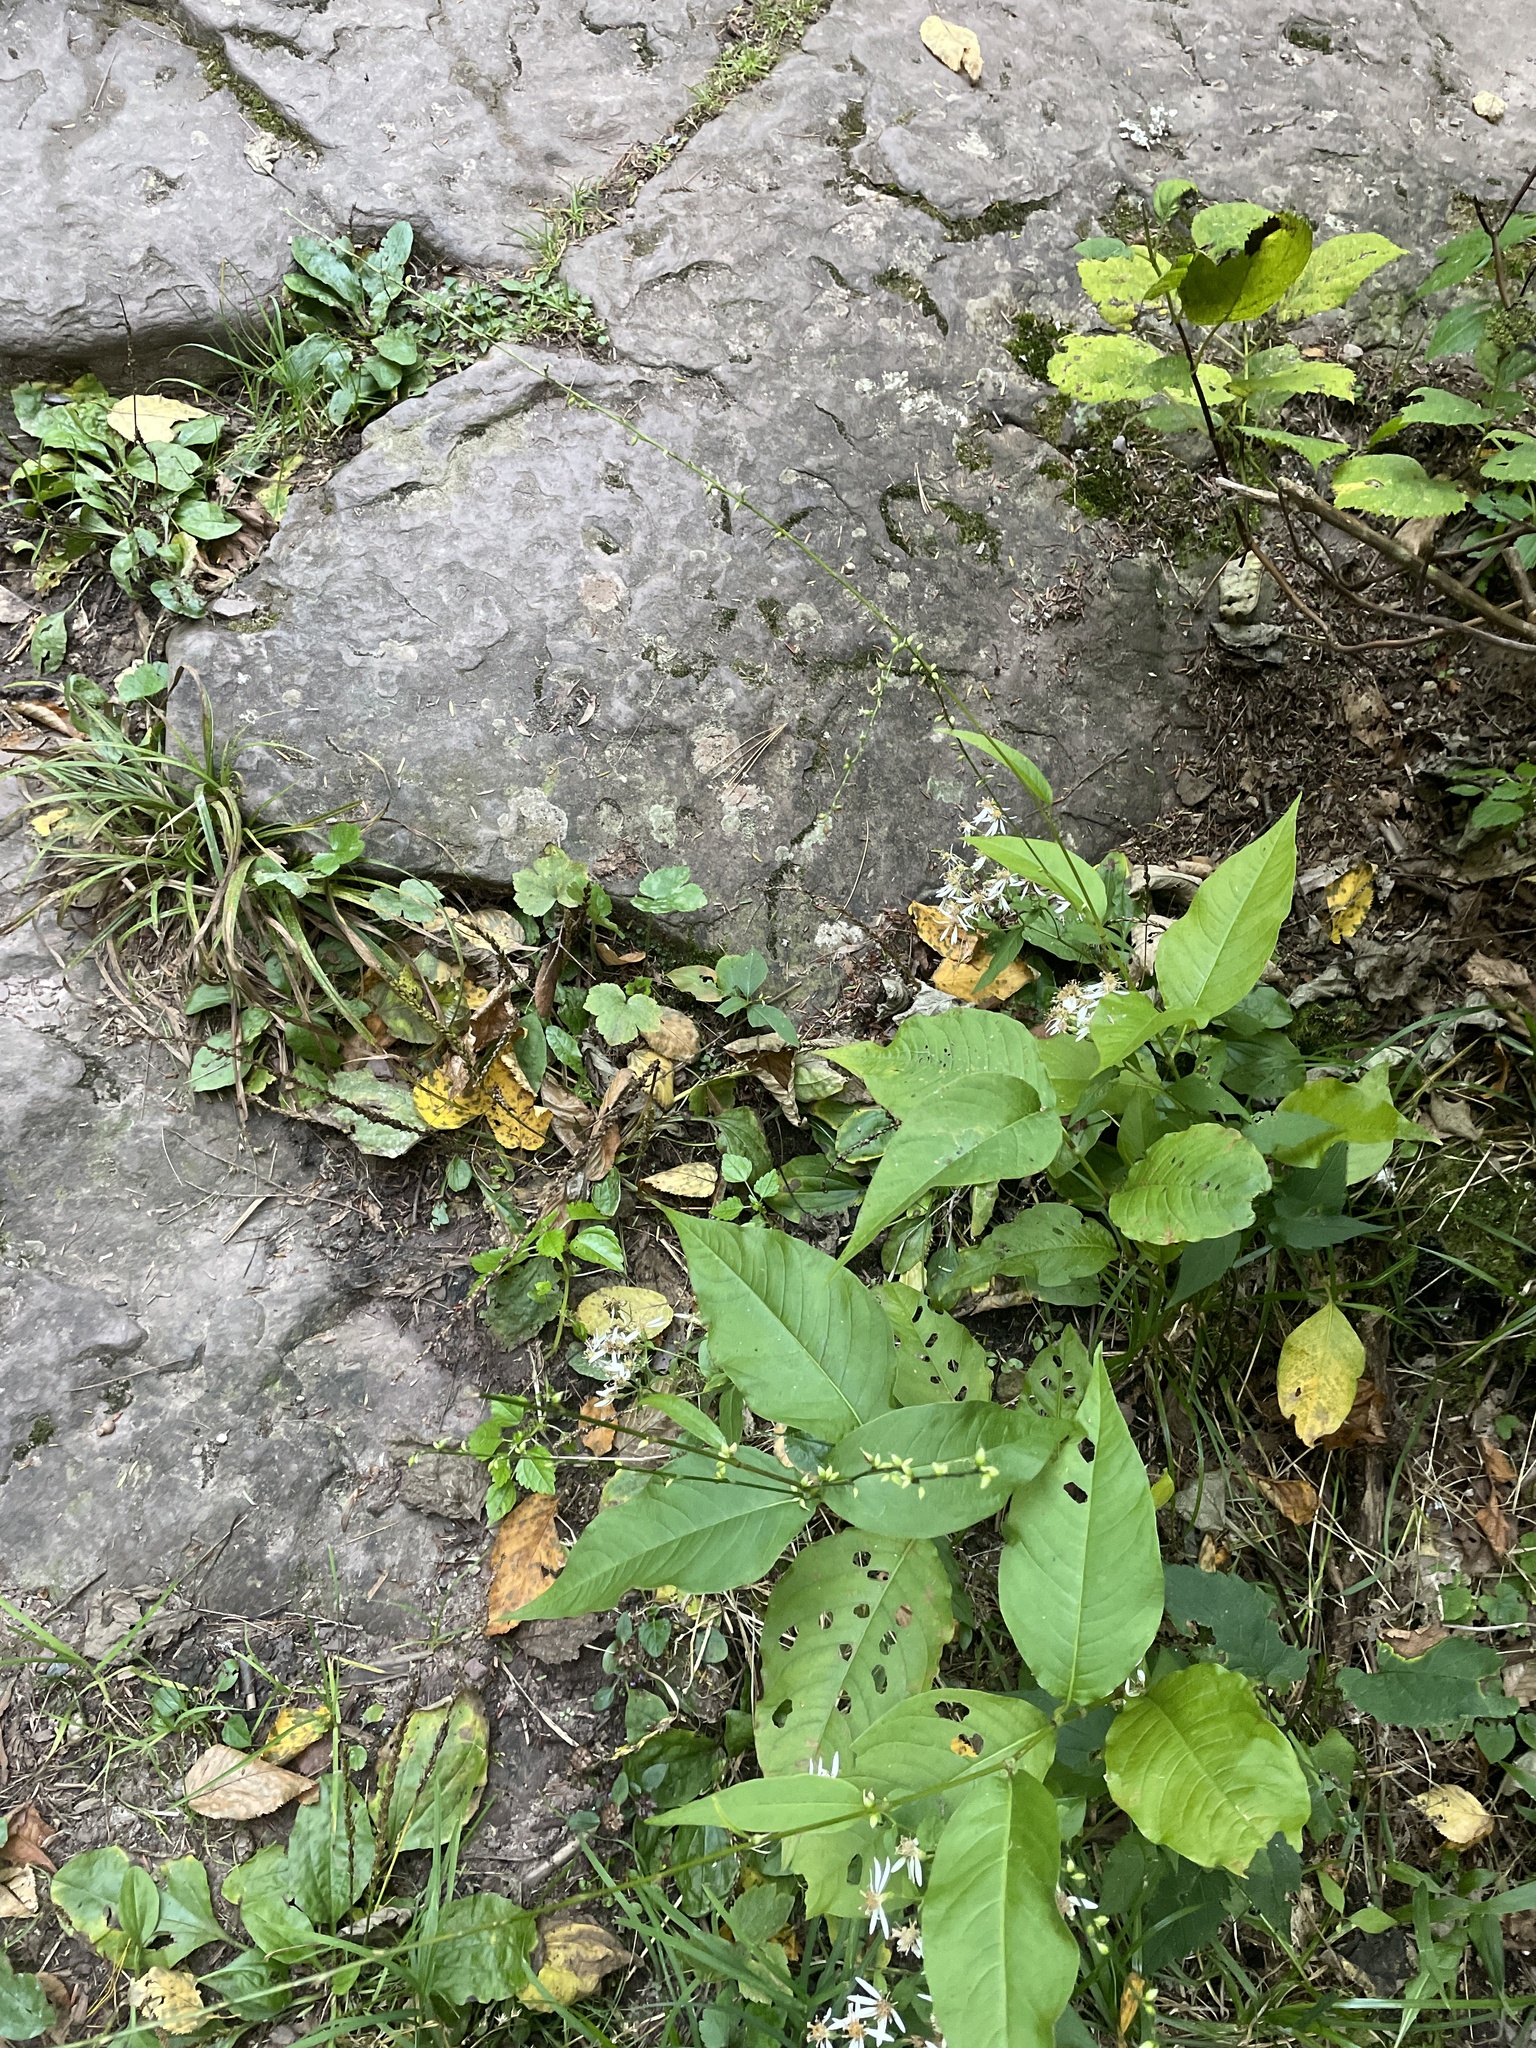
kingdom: Plantae
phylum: Tracheophyta
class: Magnoliopsida
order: Caryophyllales
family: Polygonaceae
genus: Persicaria
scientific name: Persicaria virginiana
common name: Jumpseed
